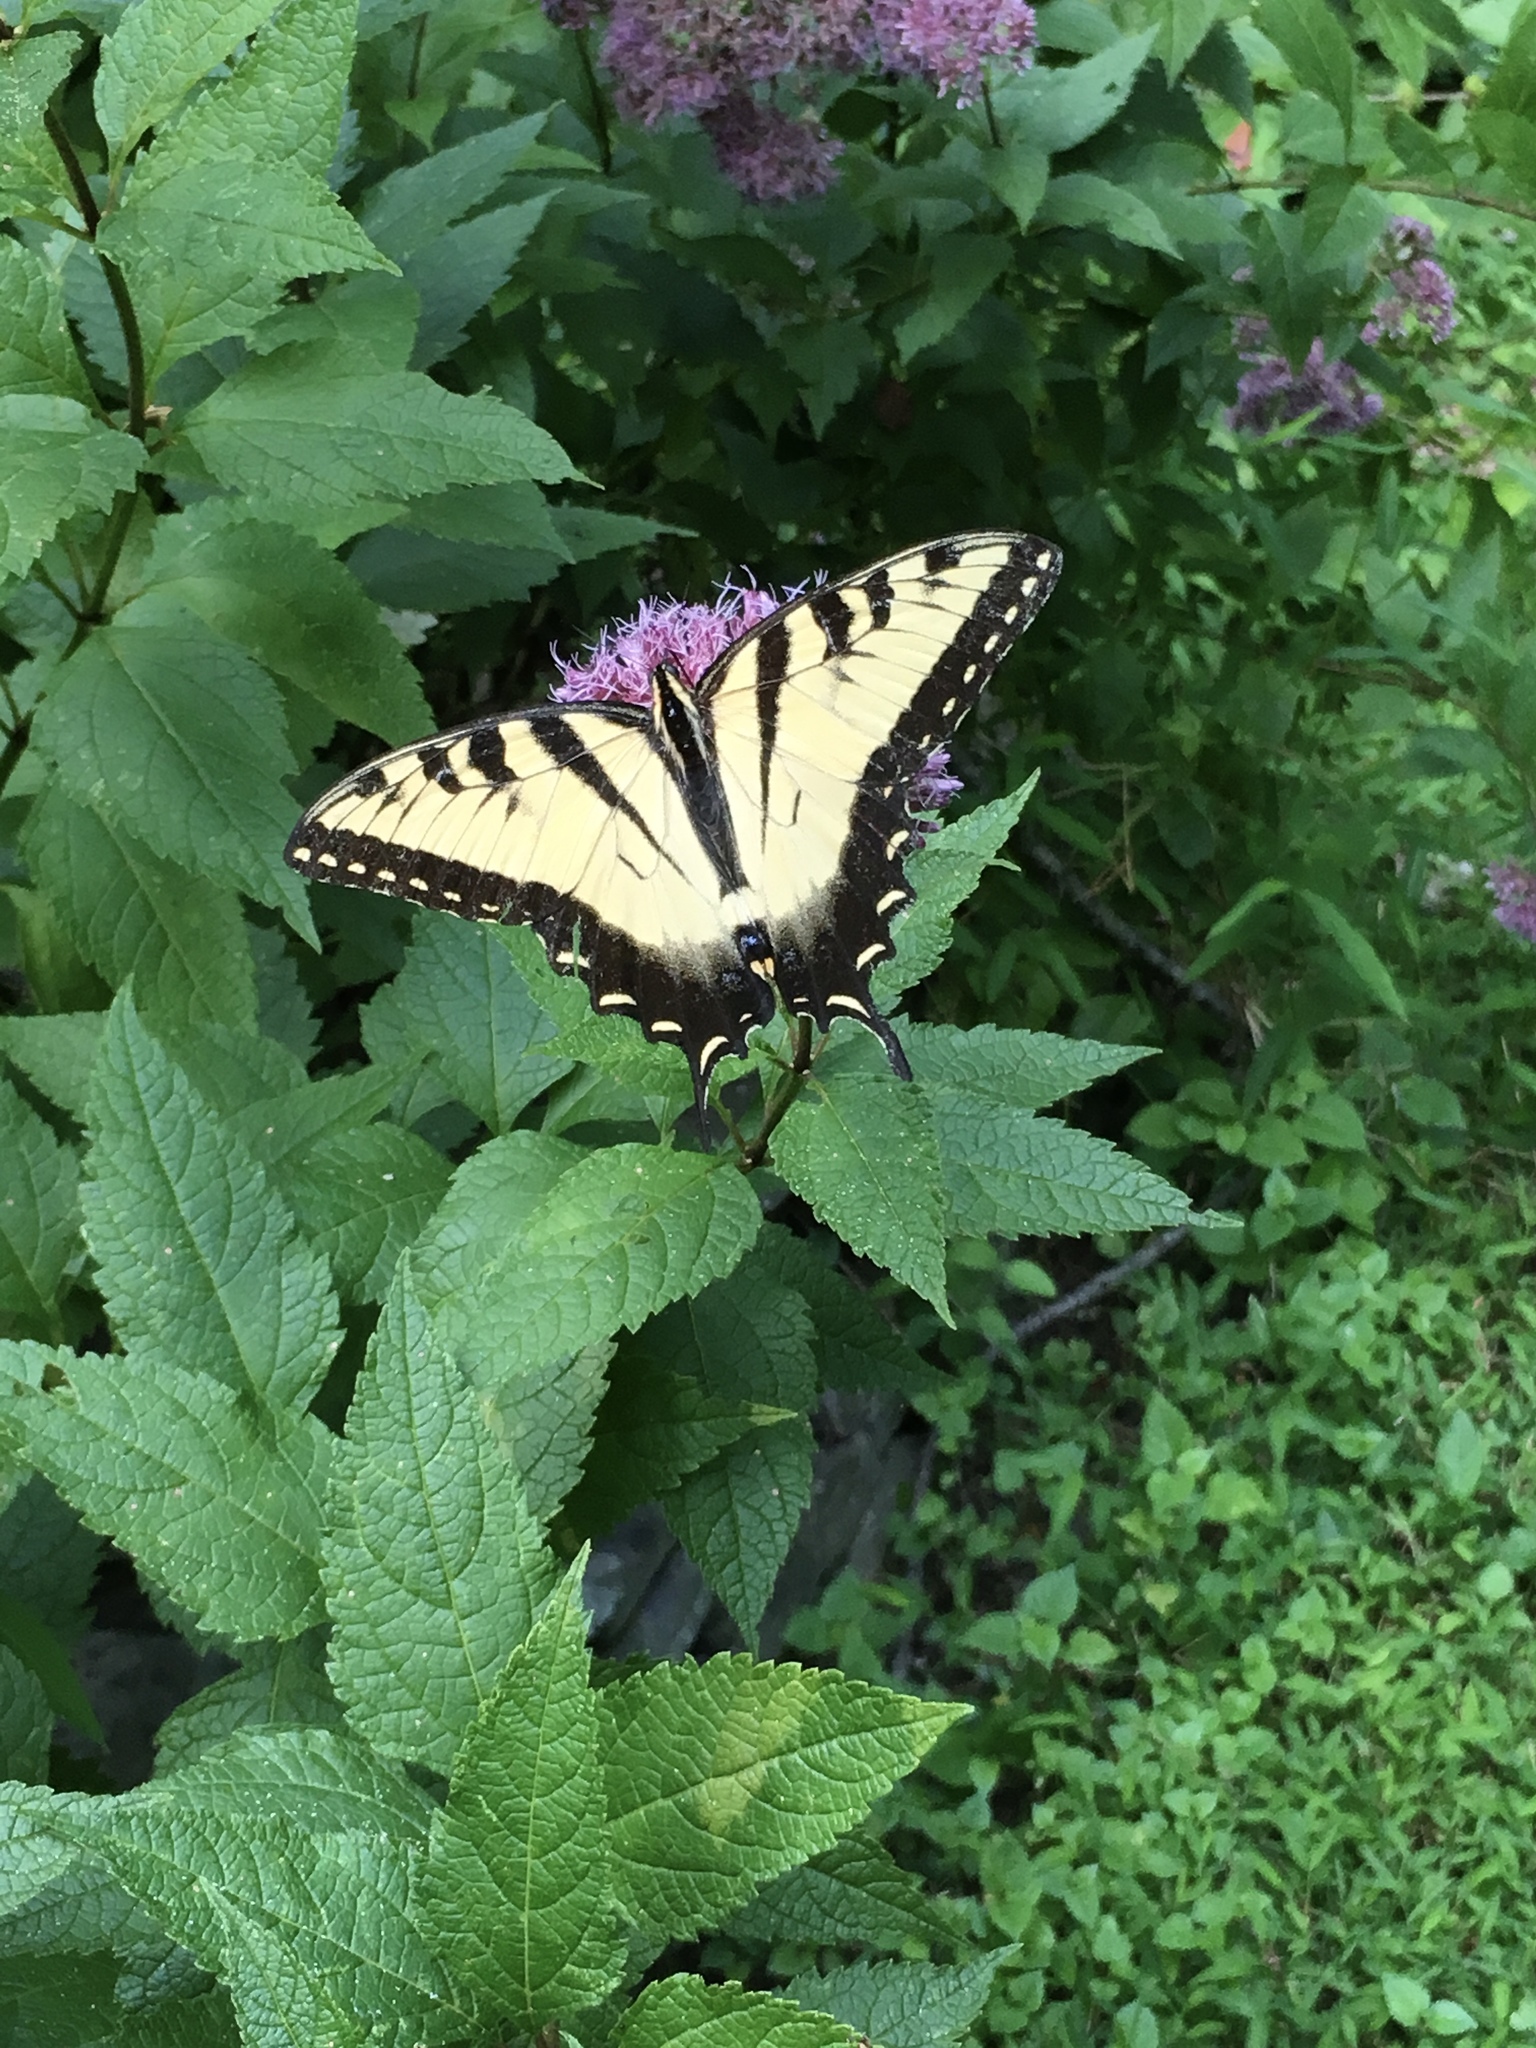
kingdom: Animalia
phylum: Arthropoda
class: Insecta
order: Lepidoptera
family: Papilionidae
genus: Papilio
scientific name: Papilio glaucus
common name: Tiger swallowtail
